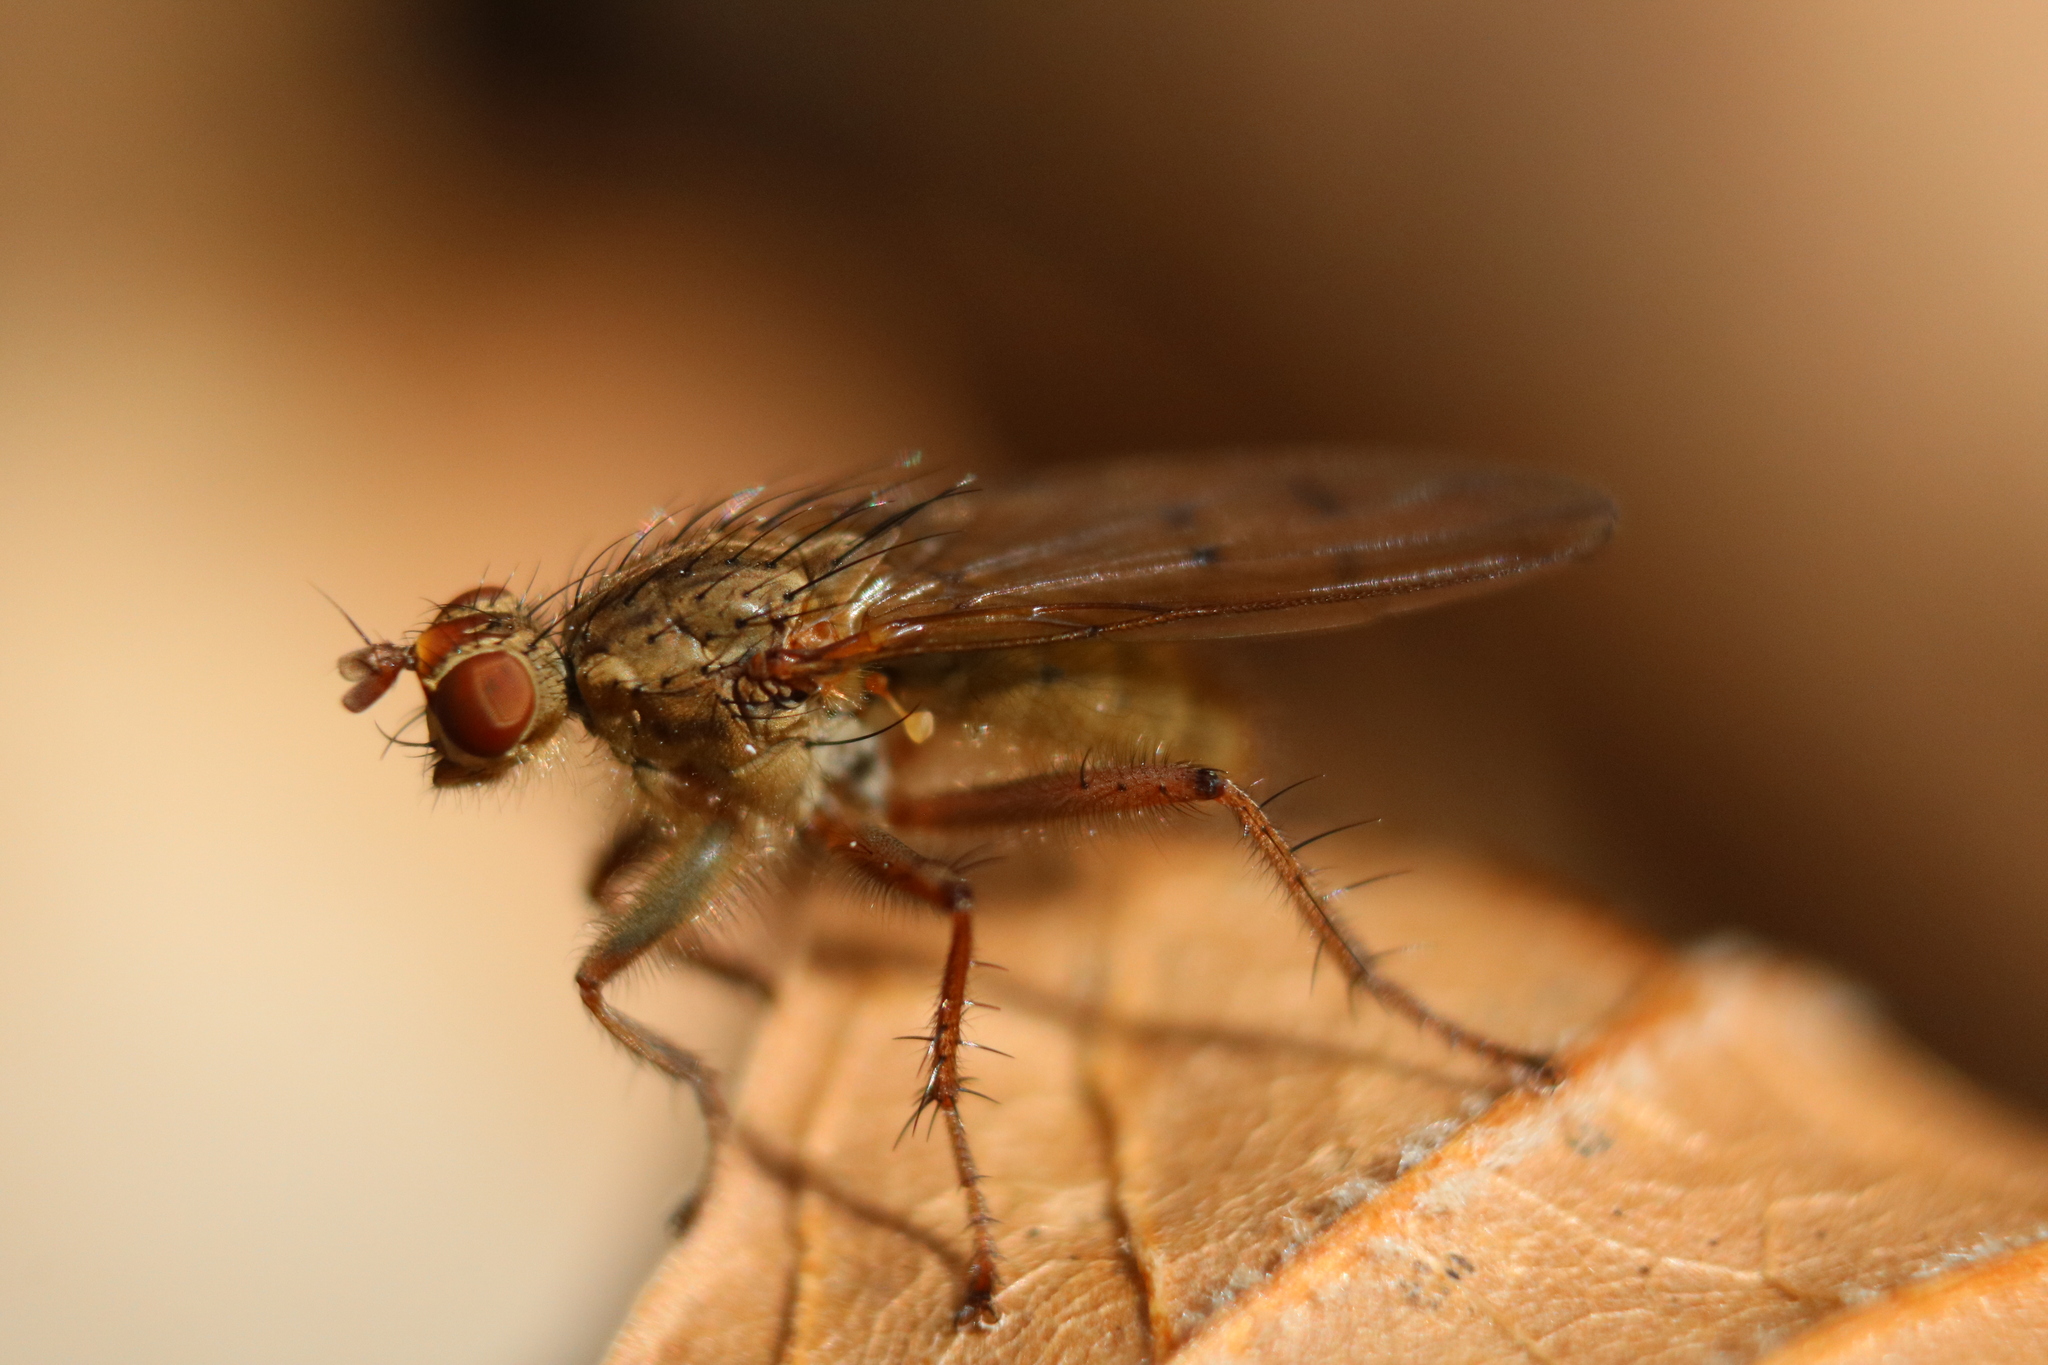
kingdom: Animalia
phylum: Arthropoda
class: Insecta
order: Diptera
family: Scathophagidae
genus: Scathophaga
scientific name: Scathophaga furcata
